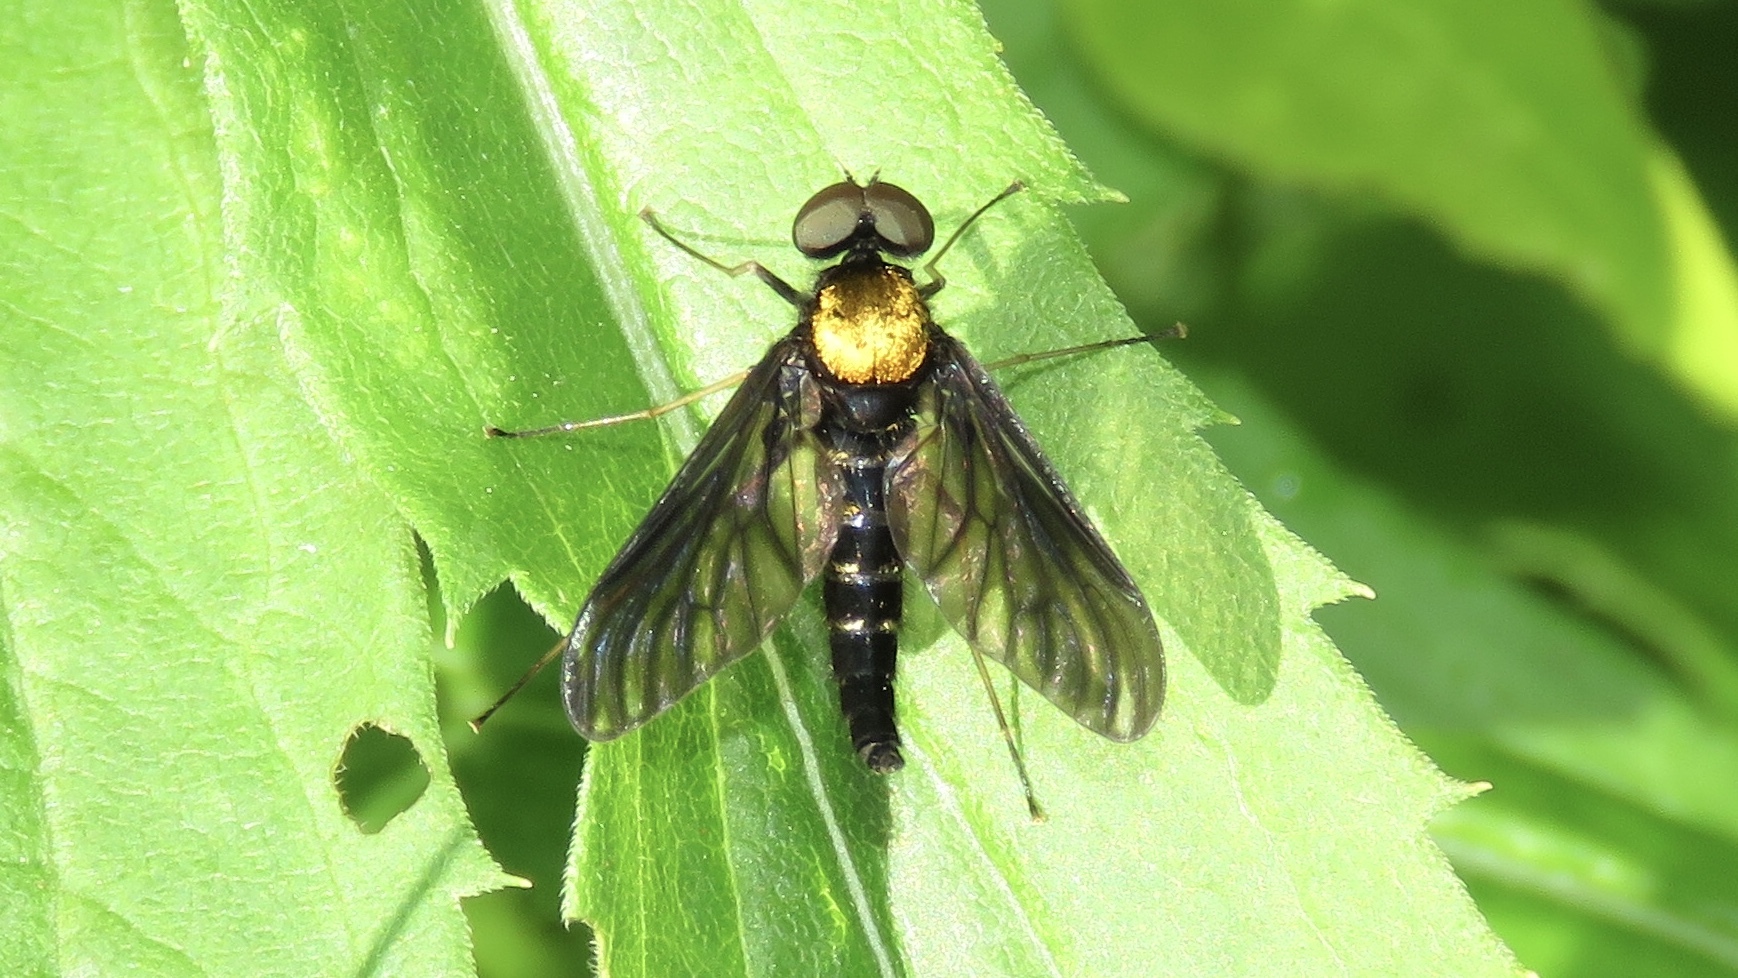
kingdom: Animalia
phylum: Arthropoda
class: Insecta
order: Diptera
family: Rhagionidae
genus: Chrysopilus
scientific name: Chrysopilus thoracicus
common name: Golden-backed snipe fly
